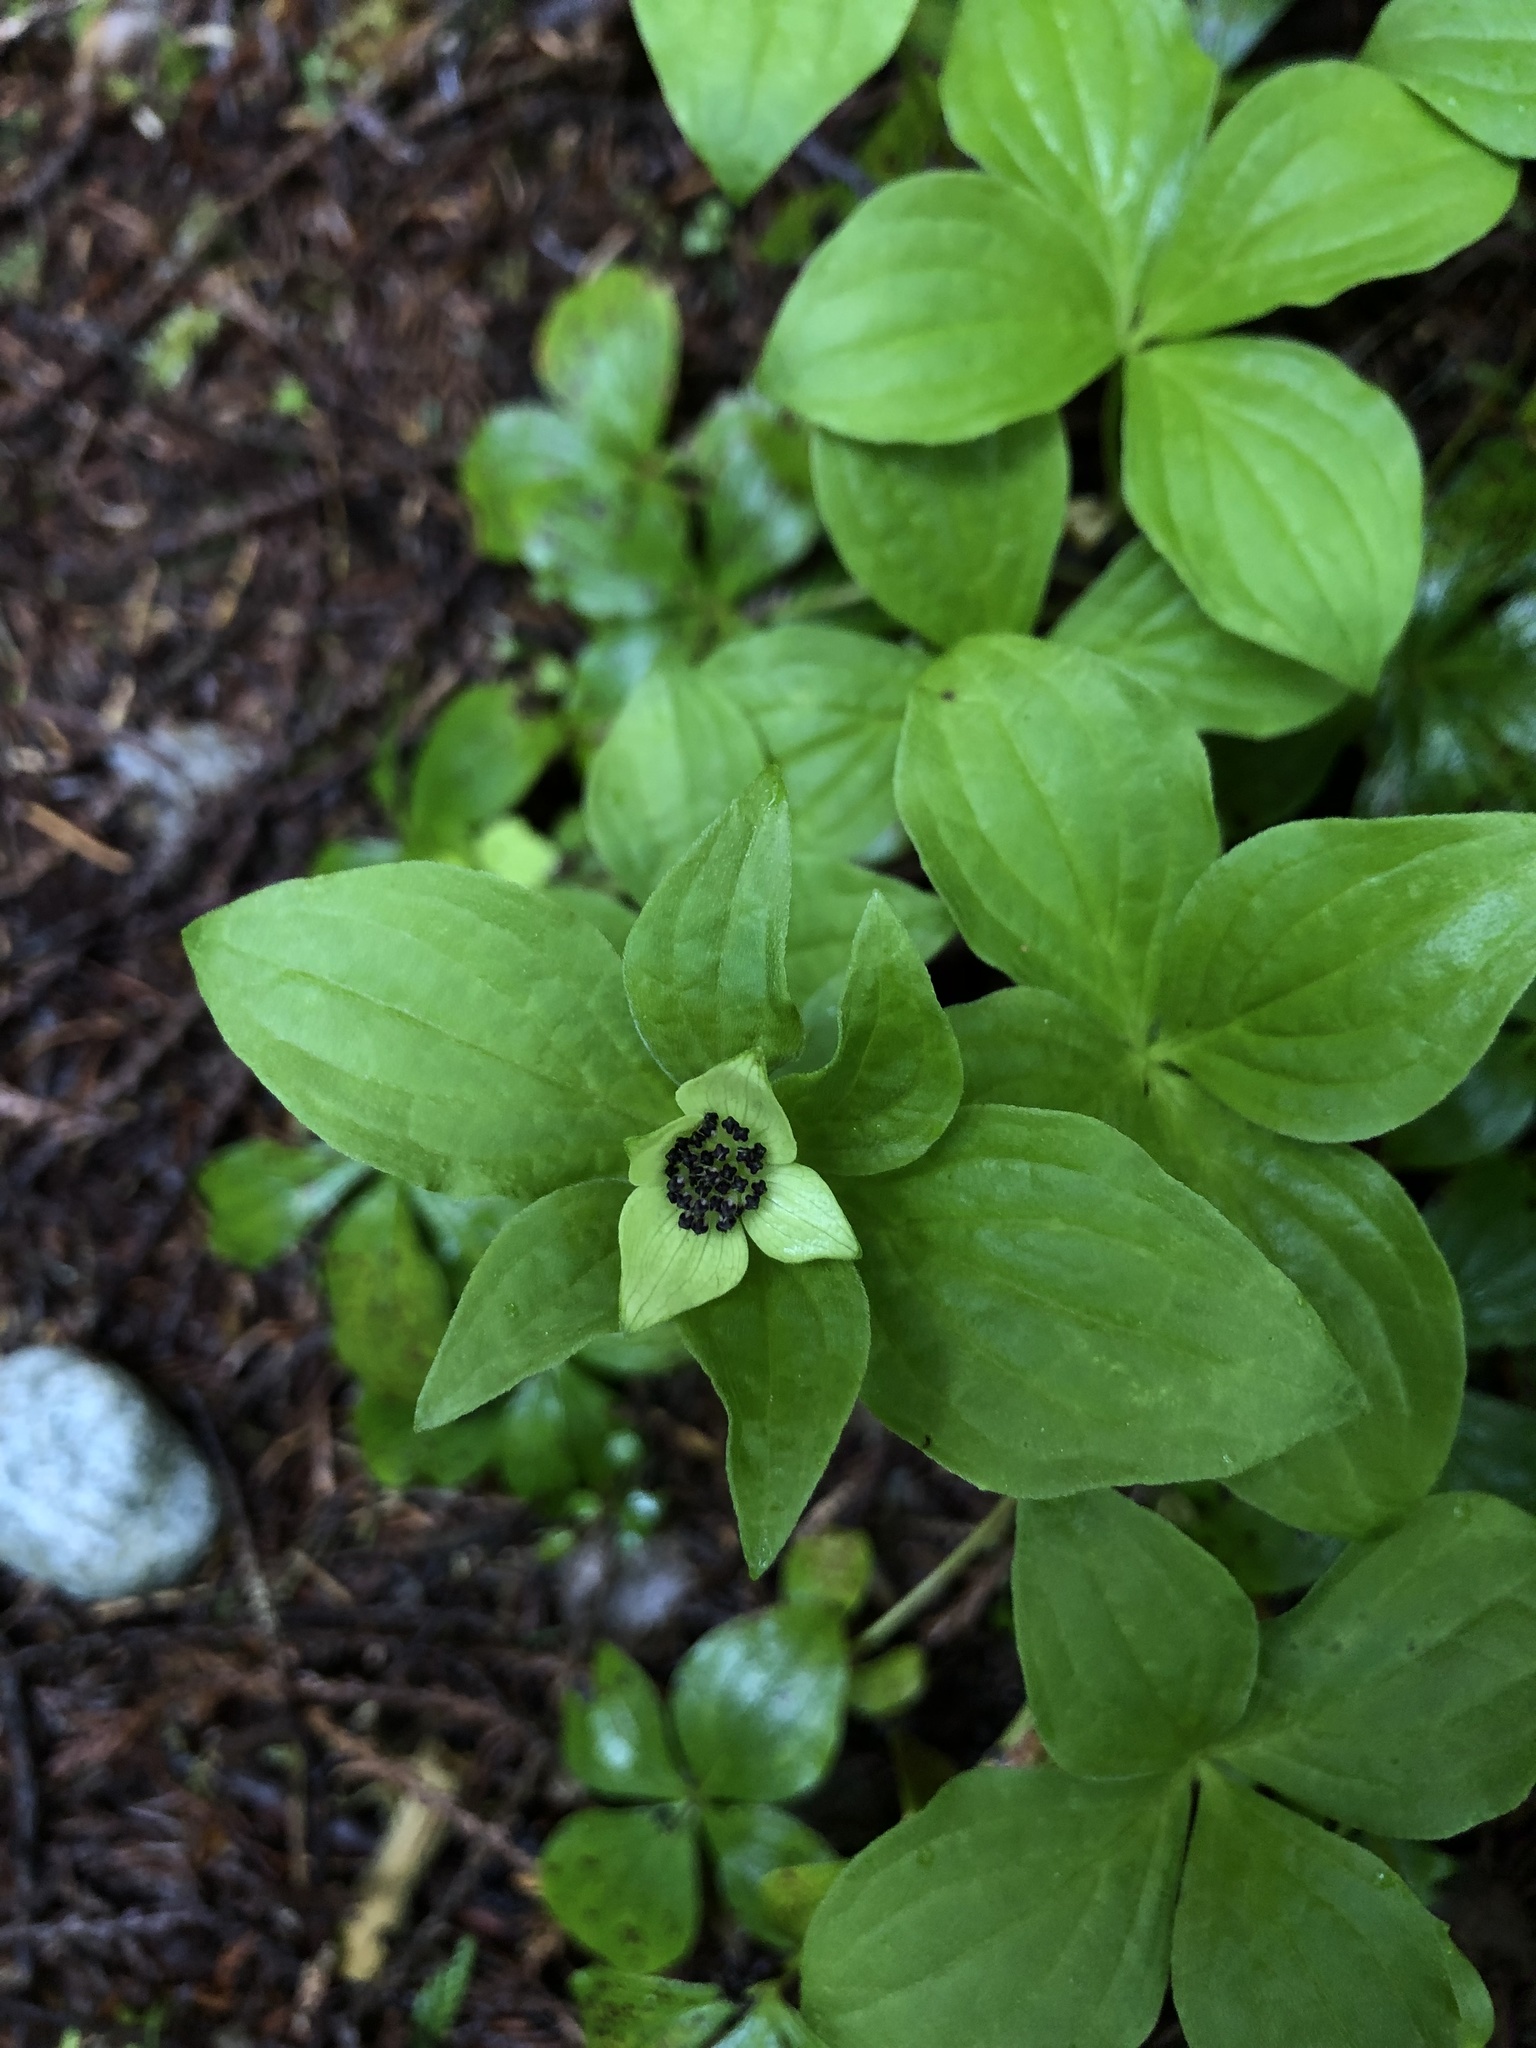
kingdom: Plantae
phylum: Tracheophyta
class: Magnoliopsida
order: Cornales
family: Cornaceae
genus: Cornus
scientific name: Cornus unalaschkensis
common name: Alaska bunchberry
